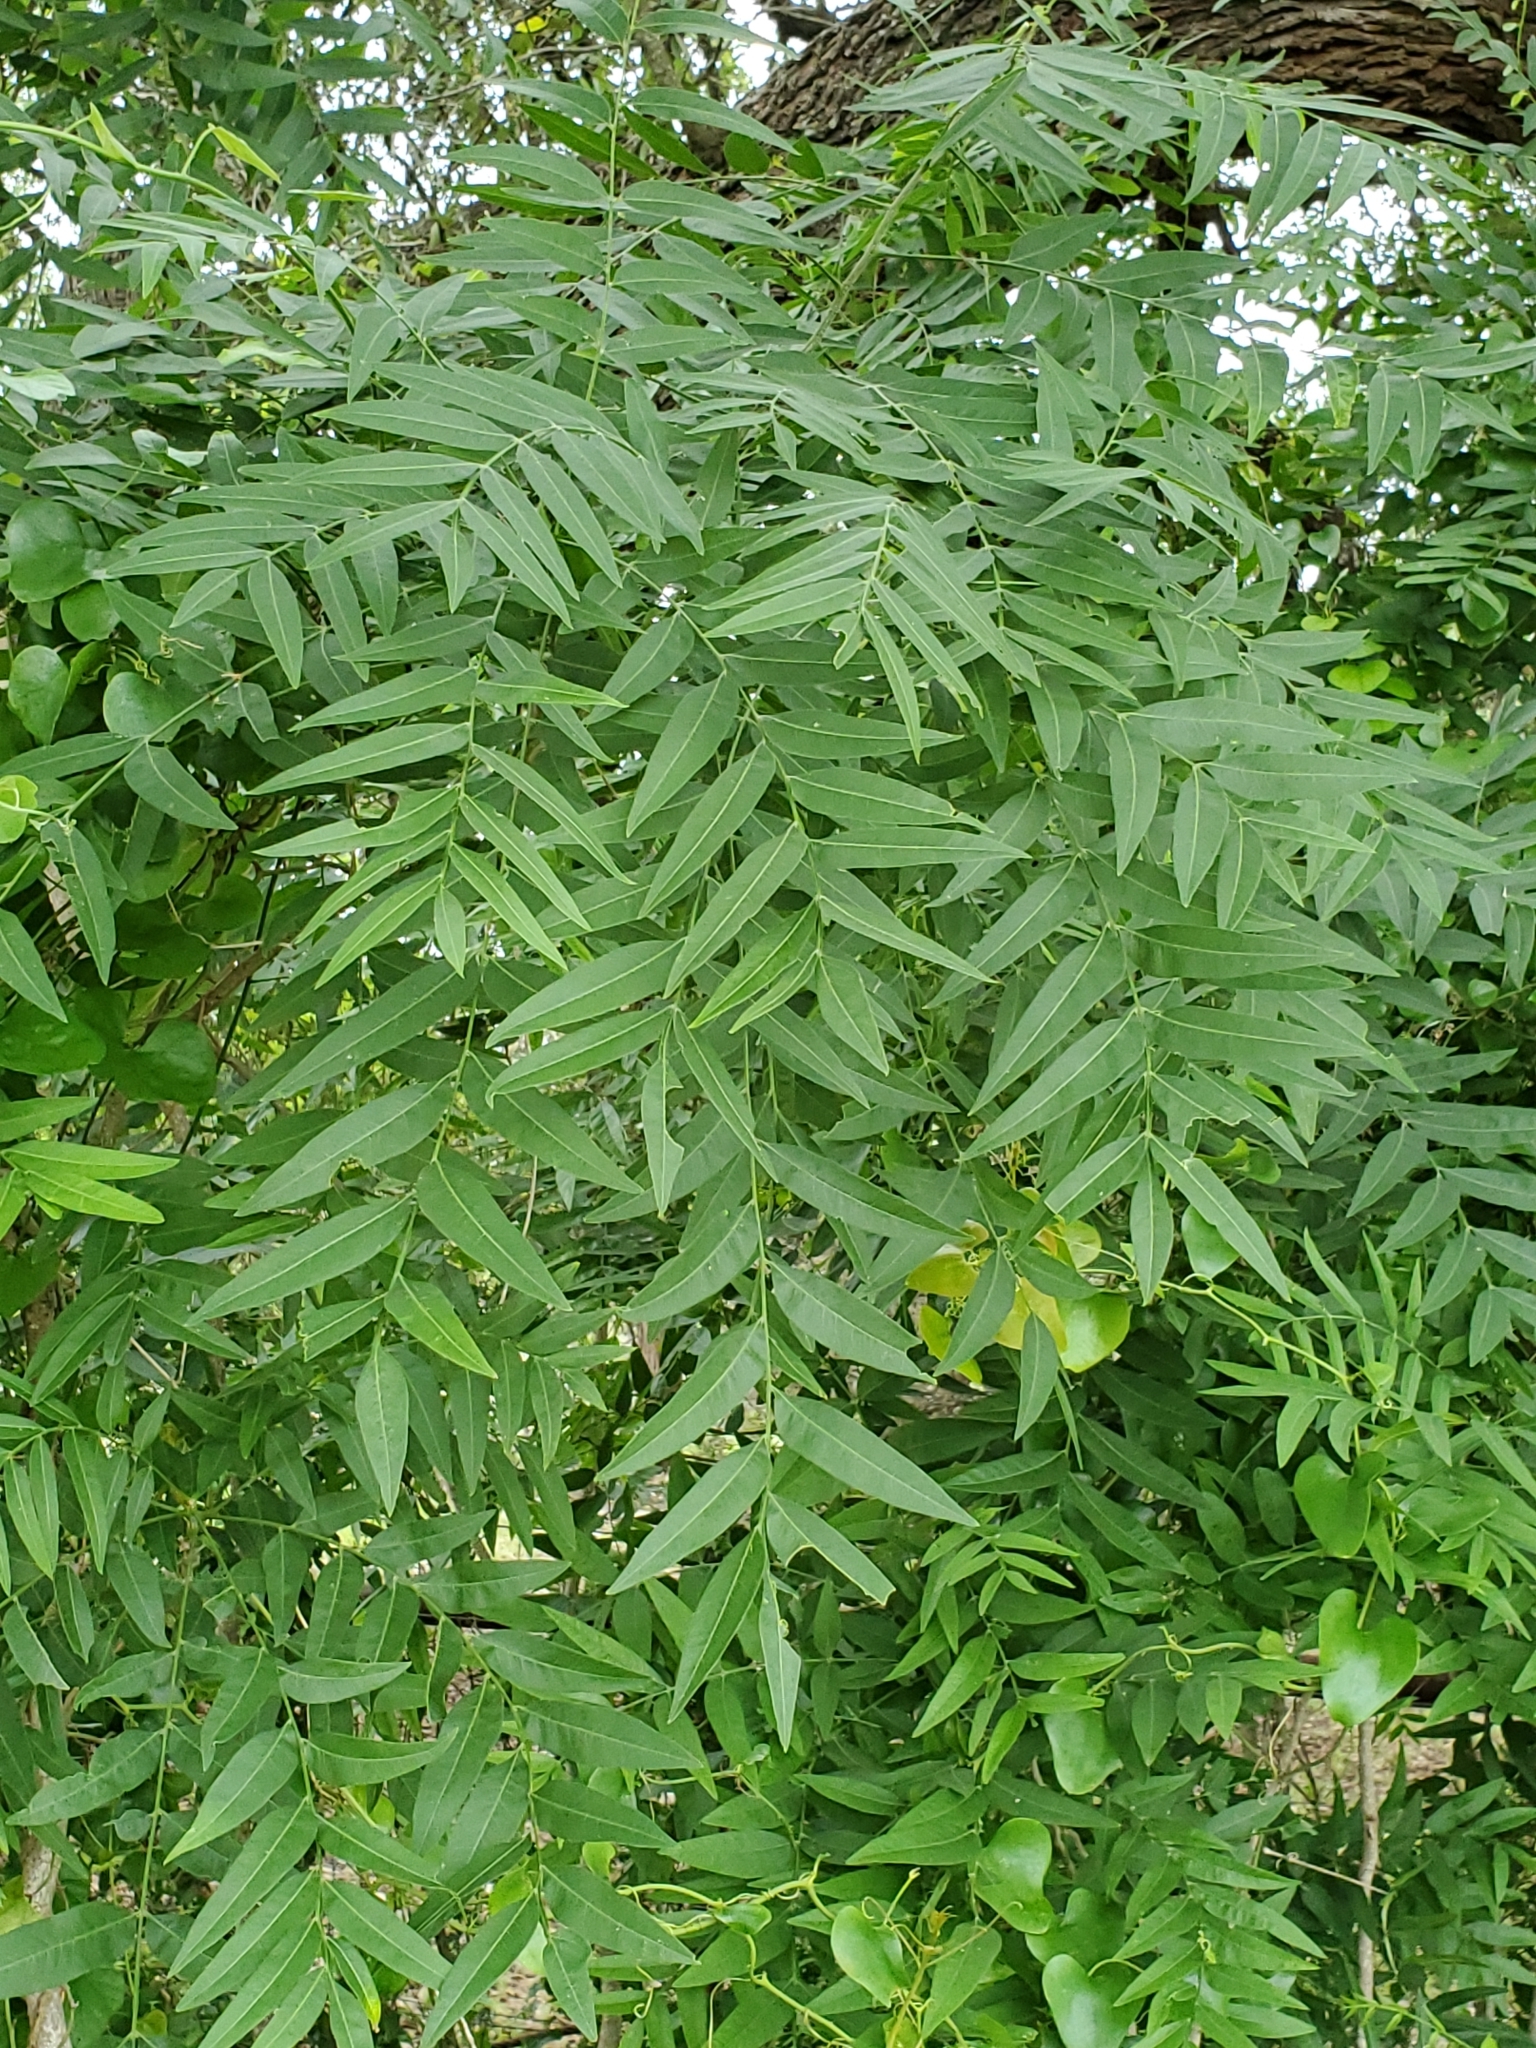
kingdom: Plantae
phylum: Tracheophyta
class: Magnoliopsida
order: Sapindales
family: Sapindaceae
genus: Sapindus
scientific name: Sapindus drummondii
